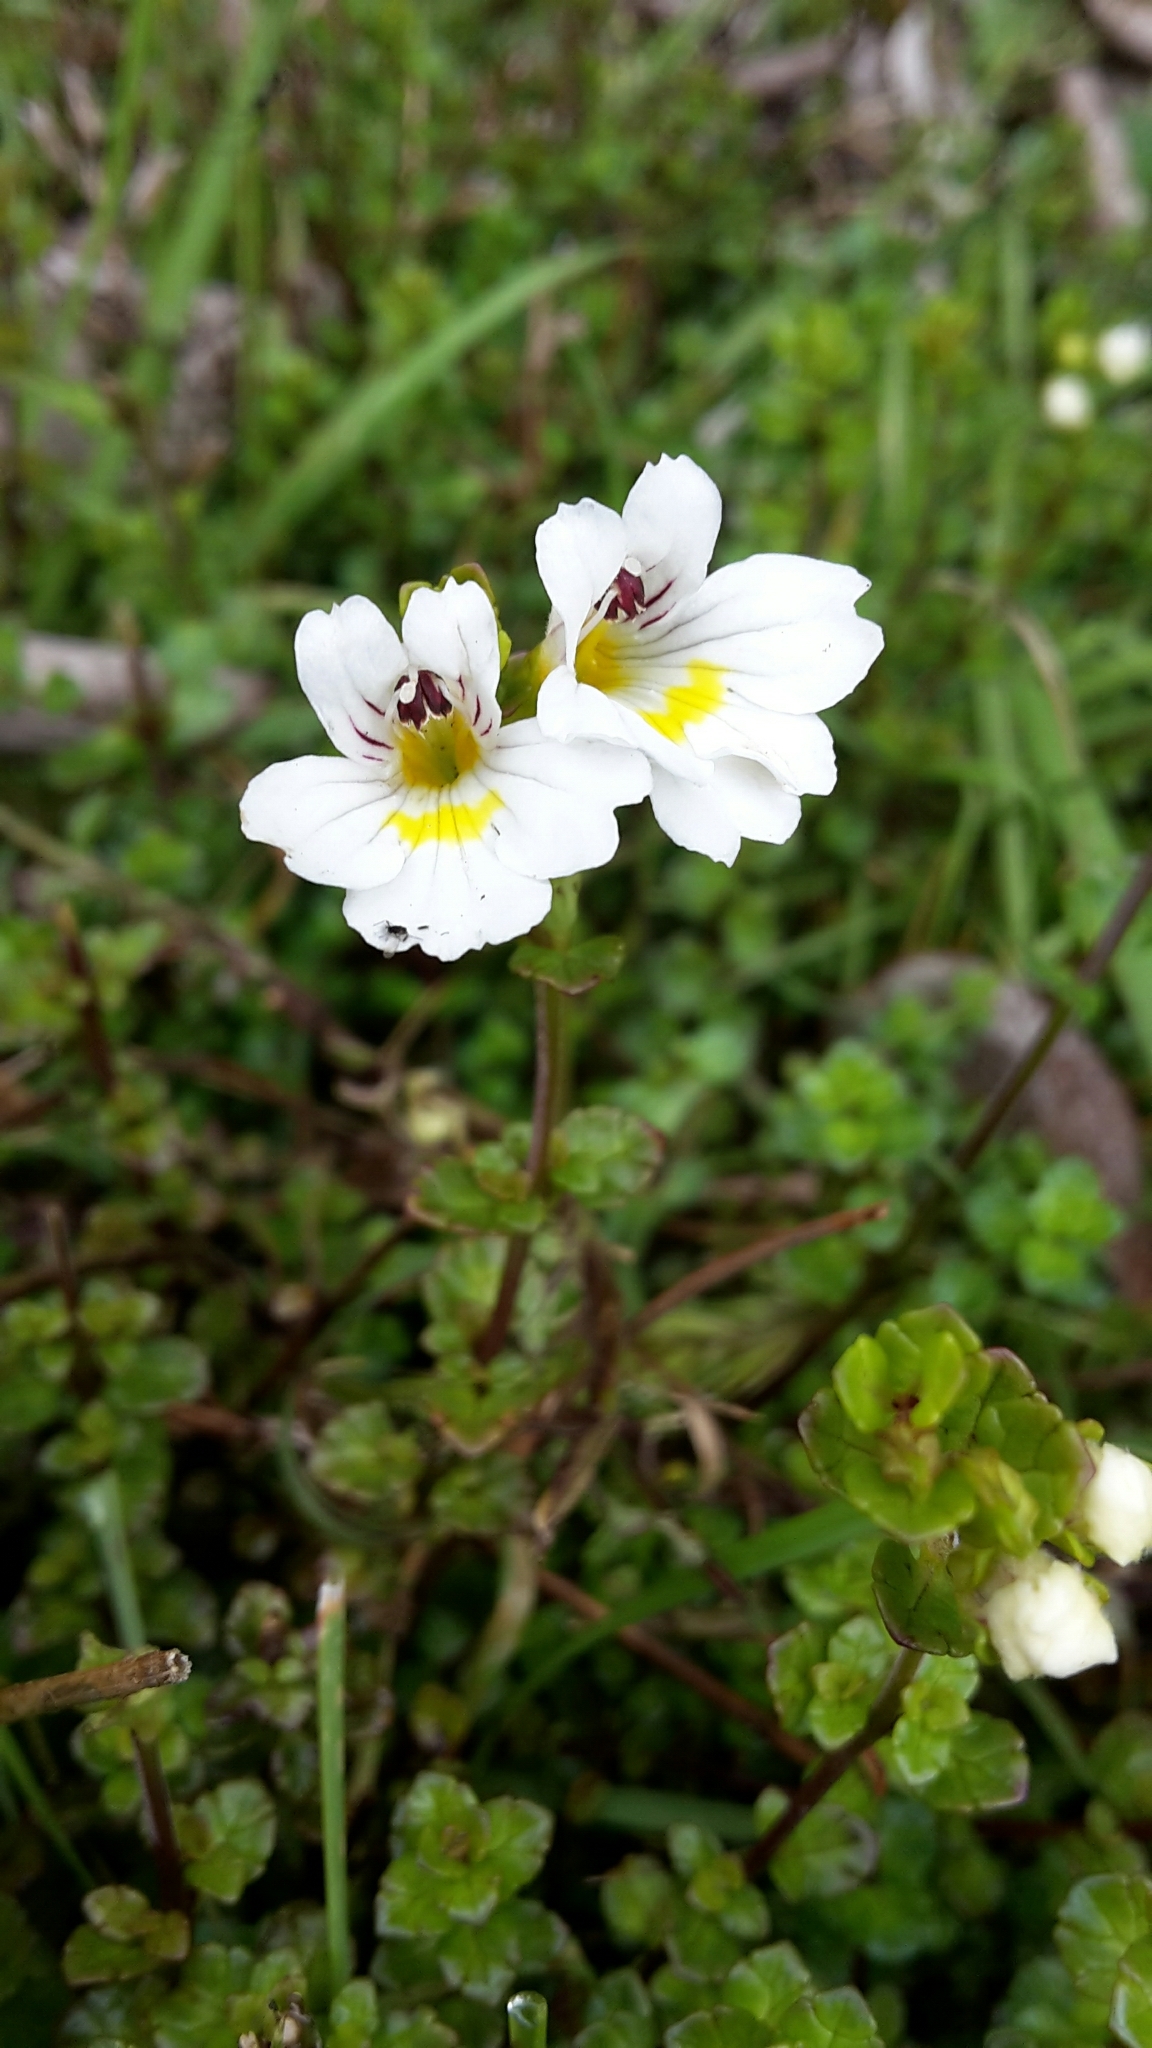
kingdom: Plantae
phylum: Tracheophyta
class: Magnoliopsida
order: Lamiales
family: Orobanchaceae
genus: Euphrasia
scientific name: Euphrasia cuneata
